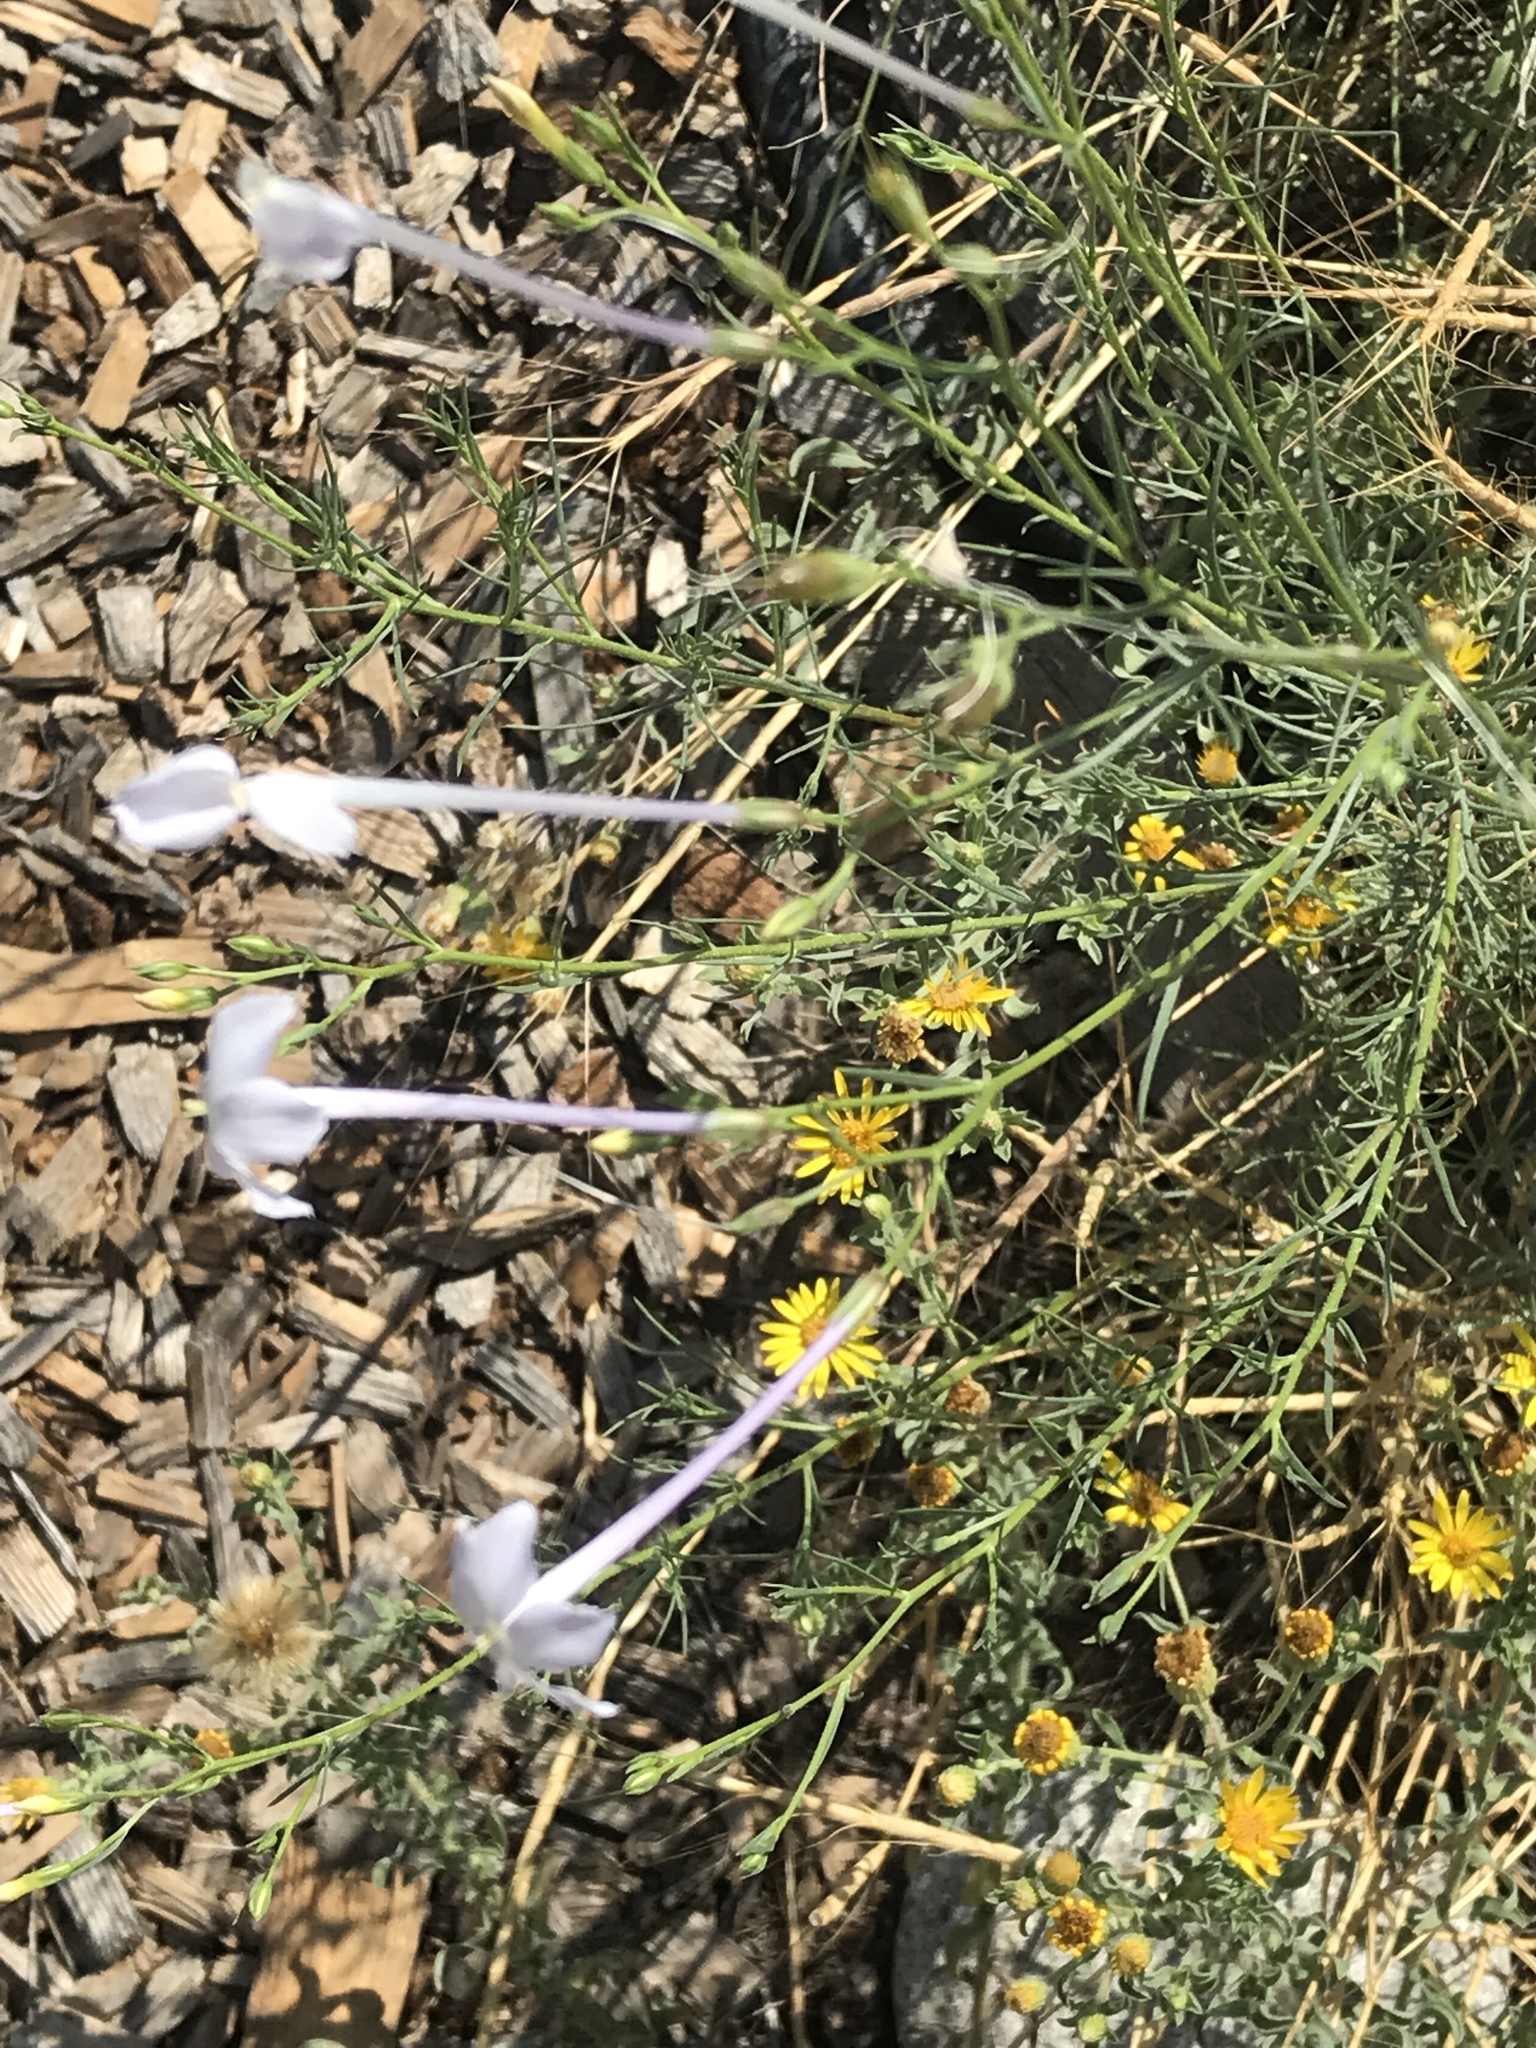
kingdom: Plantae
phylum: Tracheophyta
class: Magnoliopsida
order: Ericales
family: Polemoniaceae
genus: Ipomopsis
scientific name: Ipomopsis longiflora
